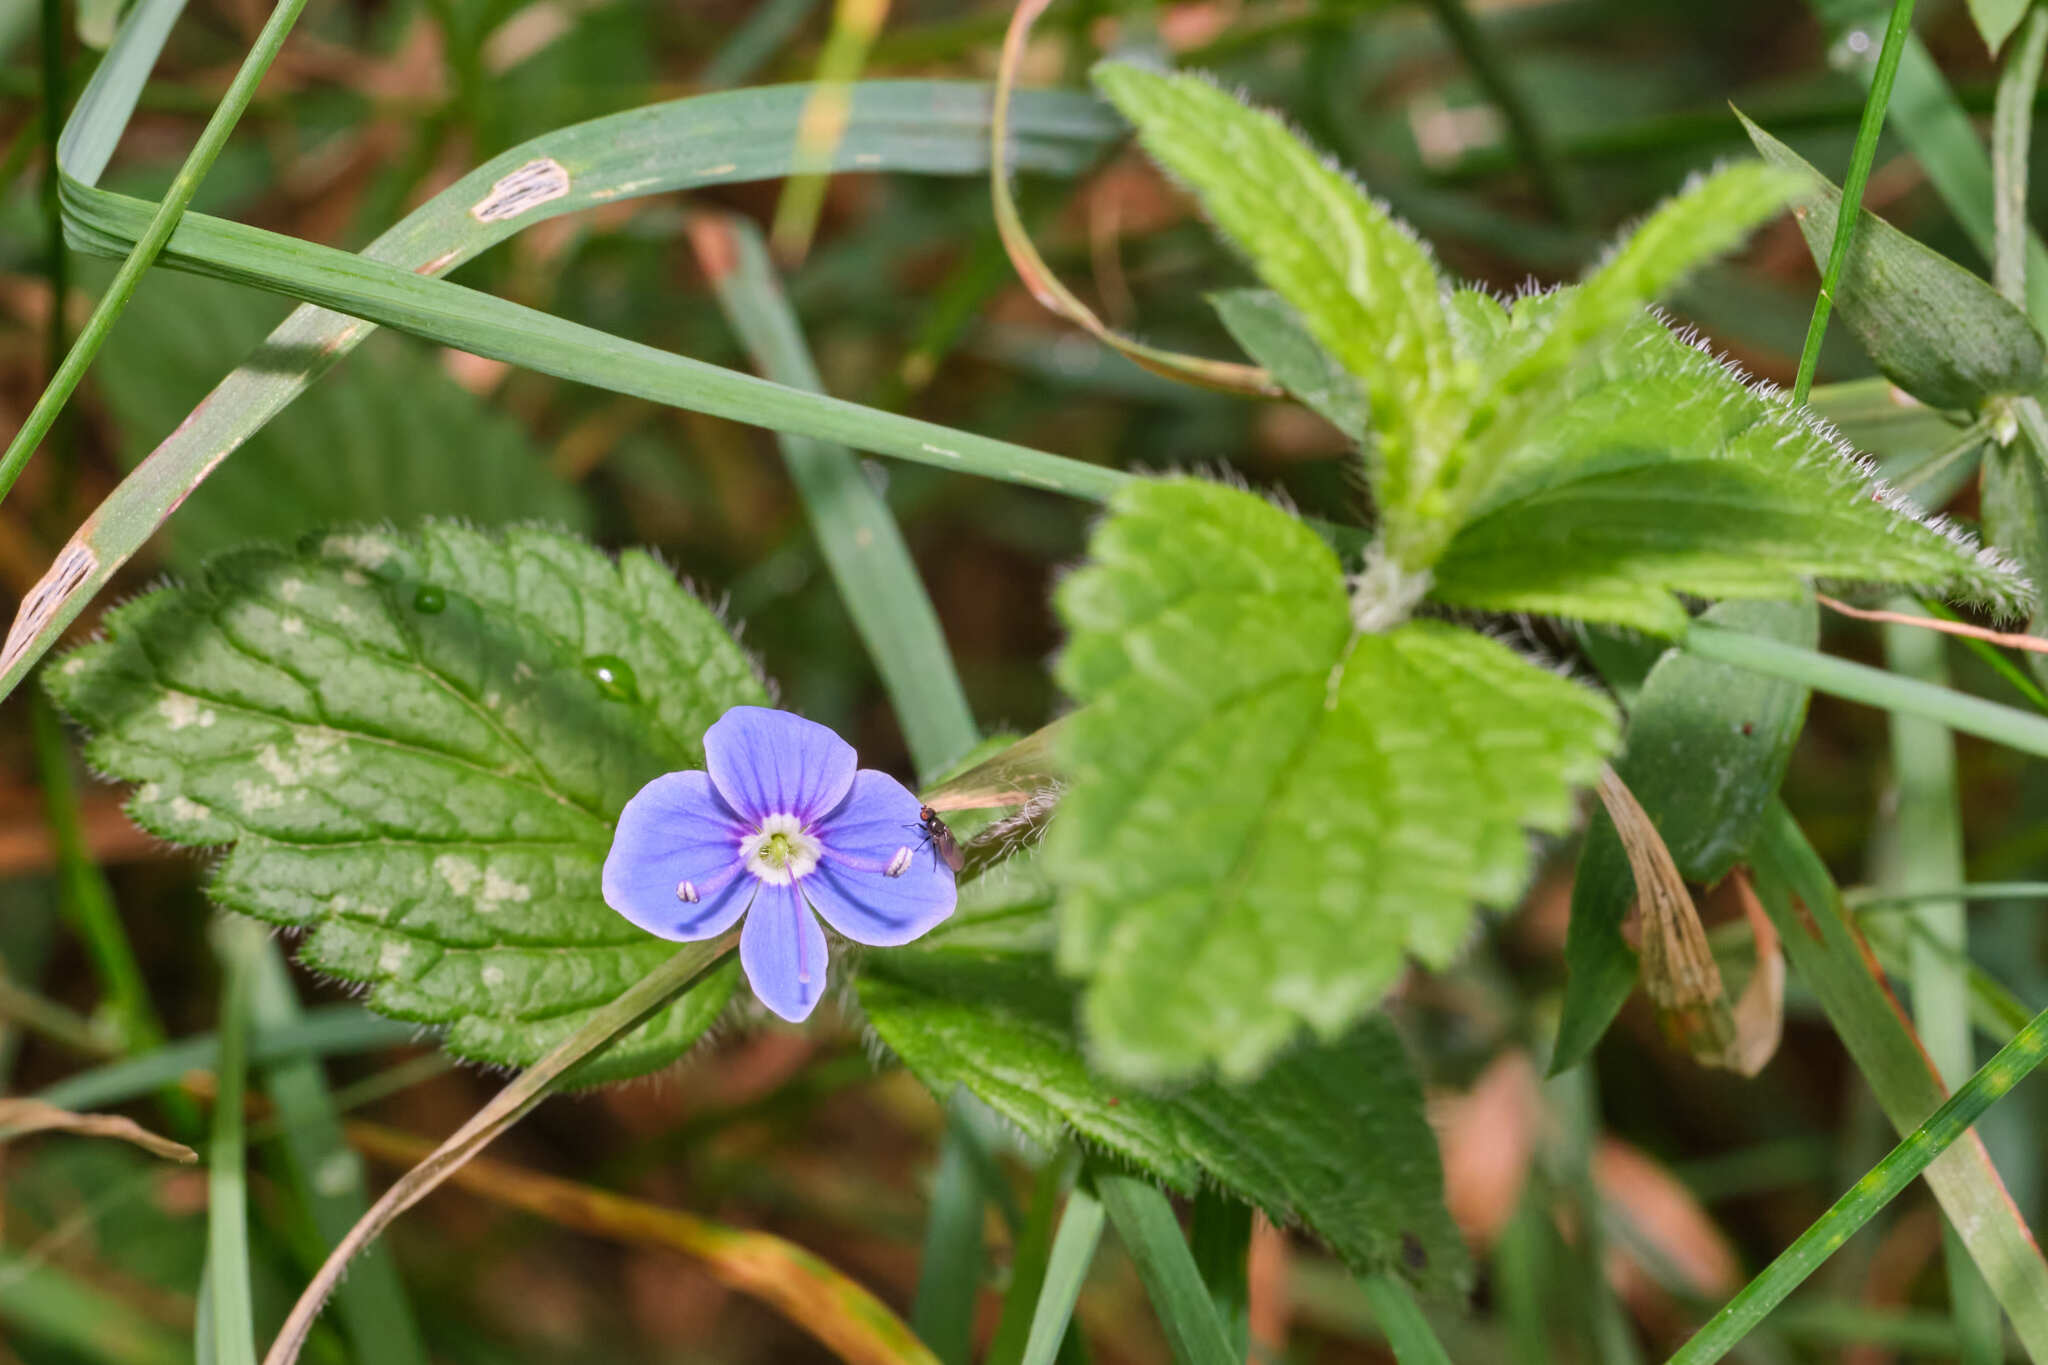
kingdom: Plantae
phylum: Tracheophyta
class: Magnoliopsida
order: Lamiales
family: Plantaginaceae
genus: Veronica
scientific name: Veronica chamaedrys
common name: Germander speedwell
